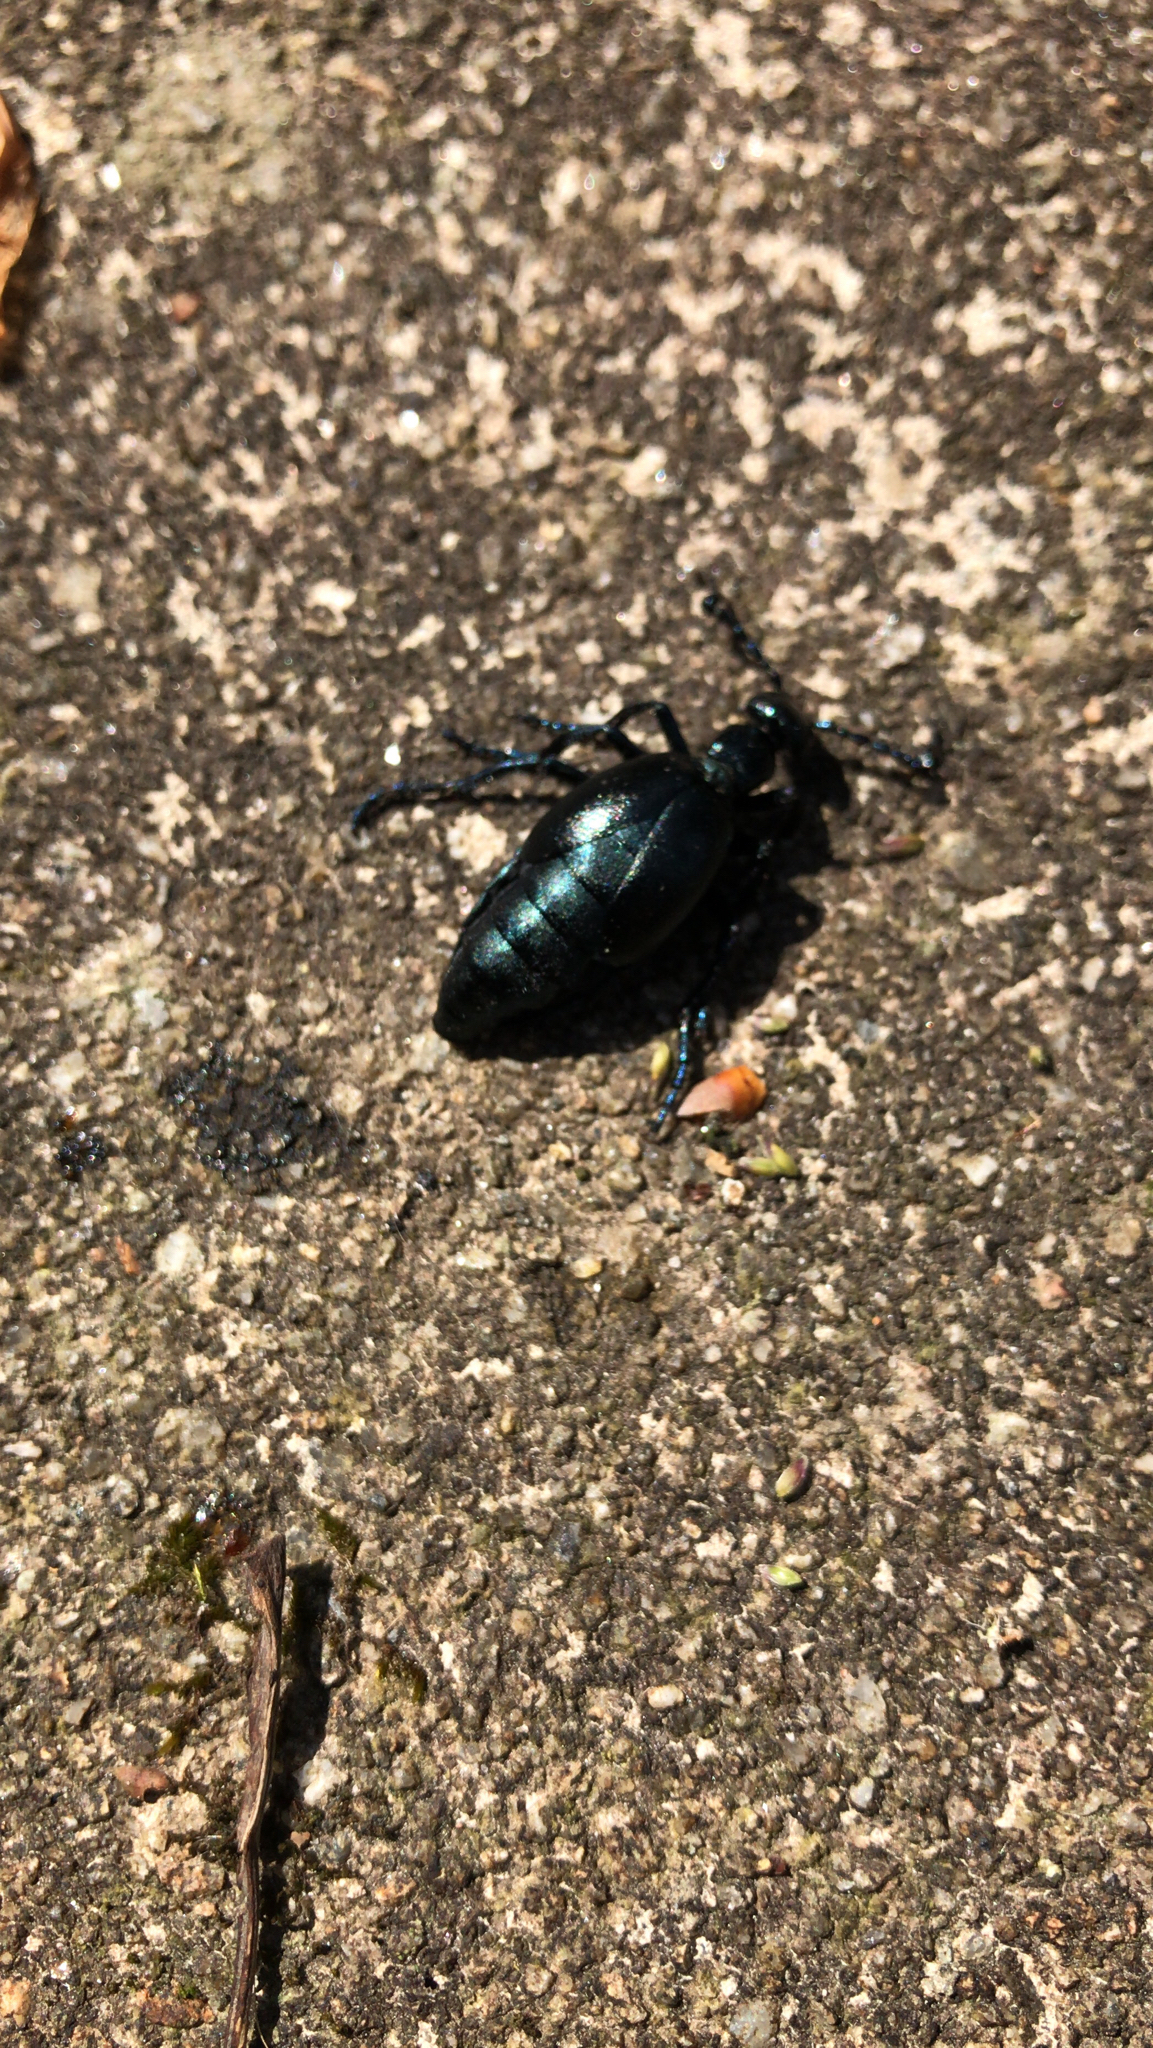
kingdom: Animalia
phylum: Arthropoda
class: Insecta
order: Coleoptera
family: Meloidae
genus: Meloe
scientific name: Meloe violaceus
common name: Violet oil-beetle
